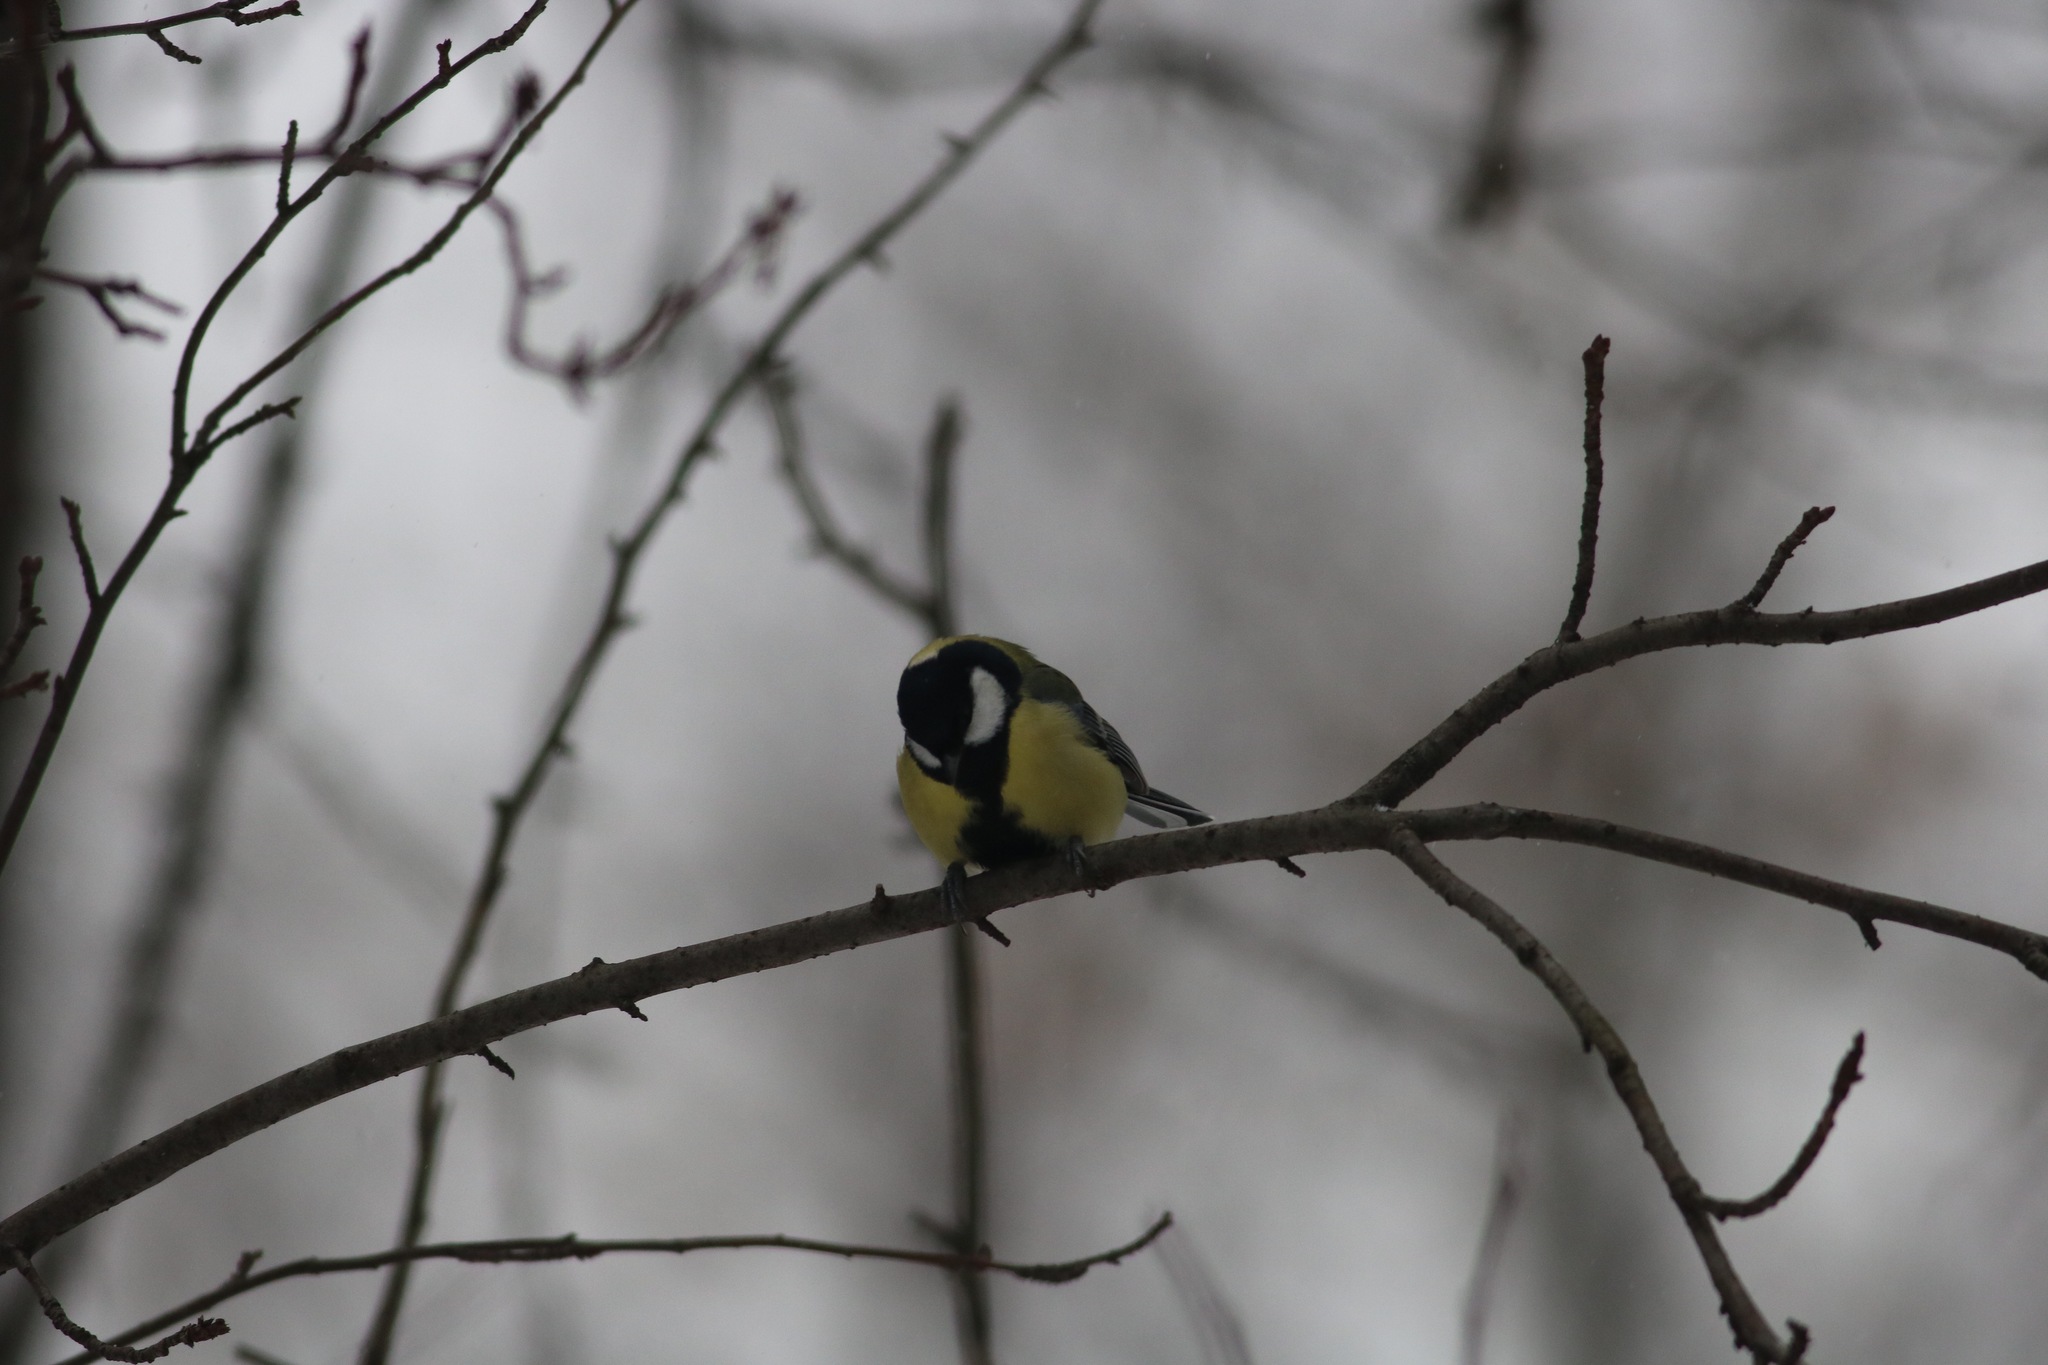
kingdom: Animalia
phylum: Chordata
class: Aves
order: Passeriformes
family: Paridae
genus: Parus
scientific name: Parus major
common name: Great tit
